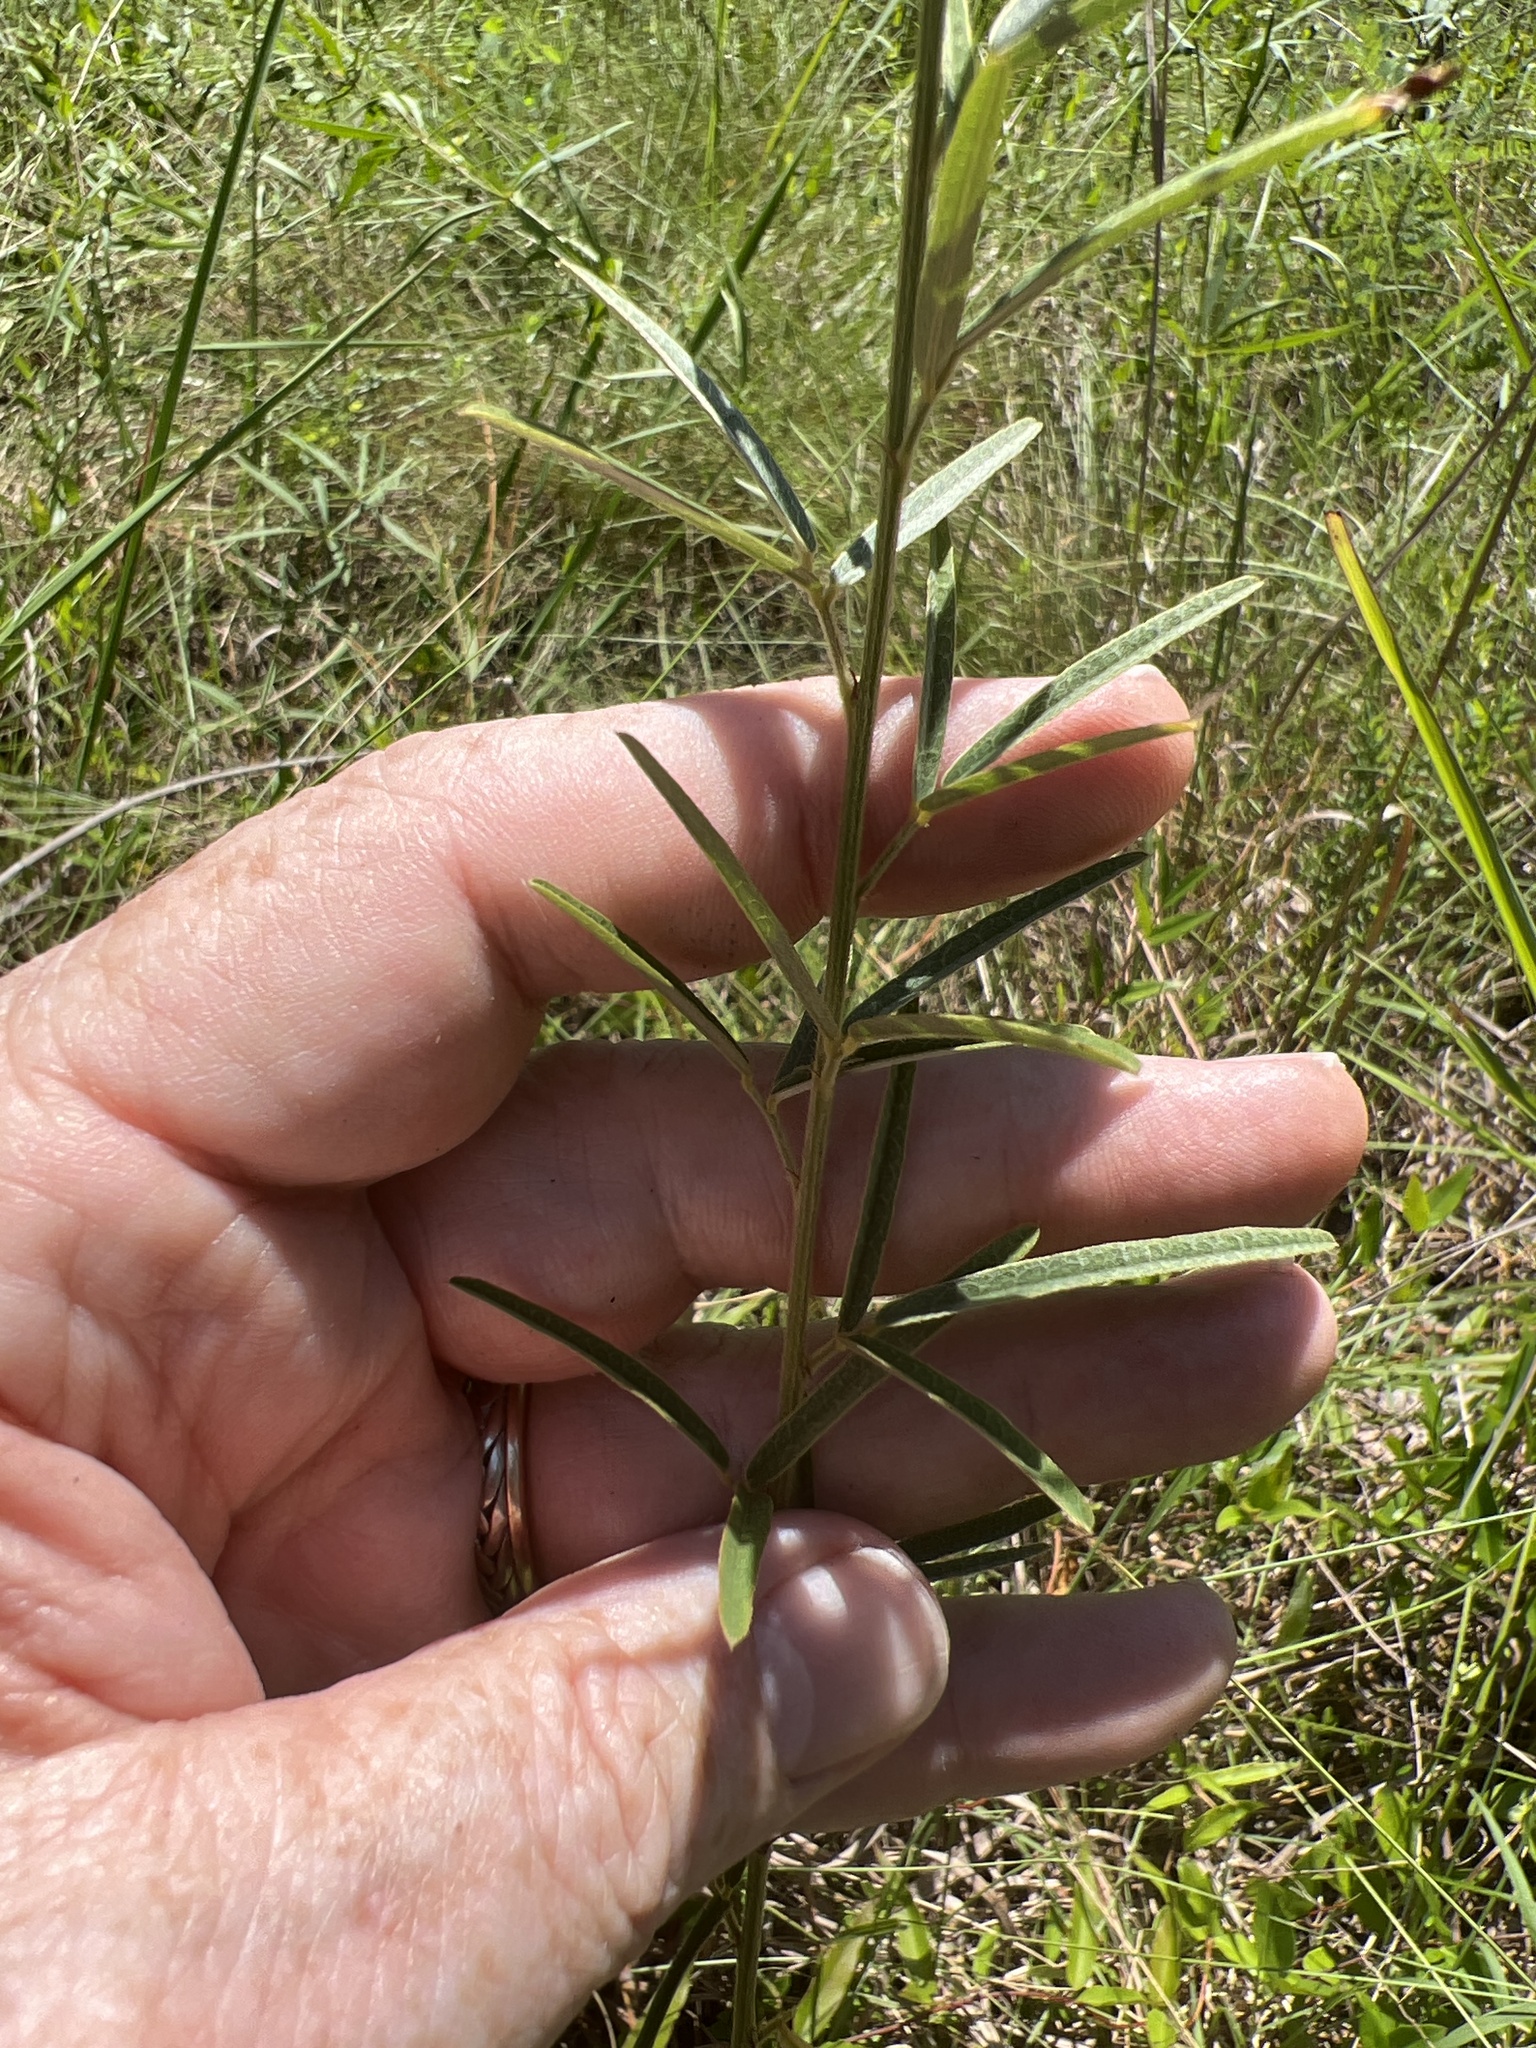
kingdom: Plantae
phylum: Tracheophyta
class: Magnoliopsida
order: Fabales
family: Fabaceae
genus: Lespedeza
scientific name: Lespedeza angustifolia
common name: Narrow-leaf bush-clover
